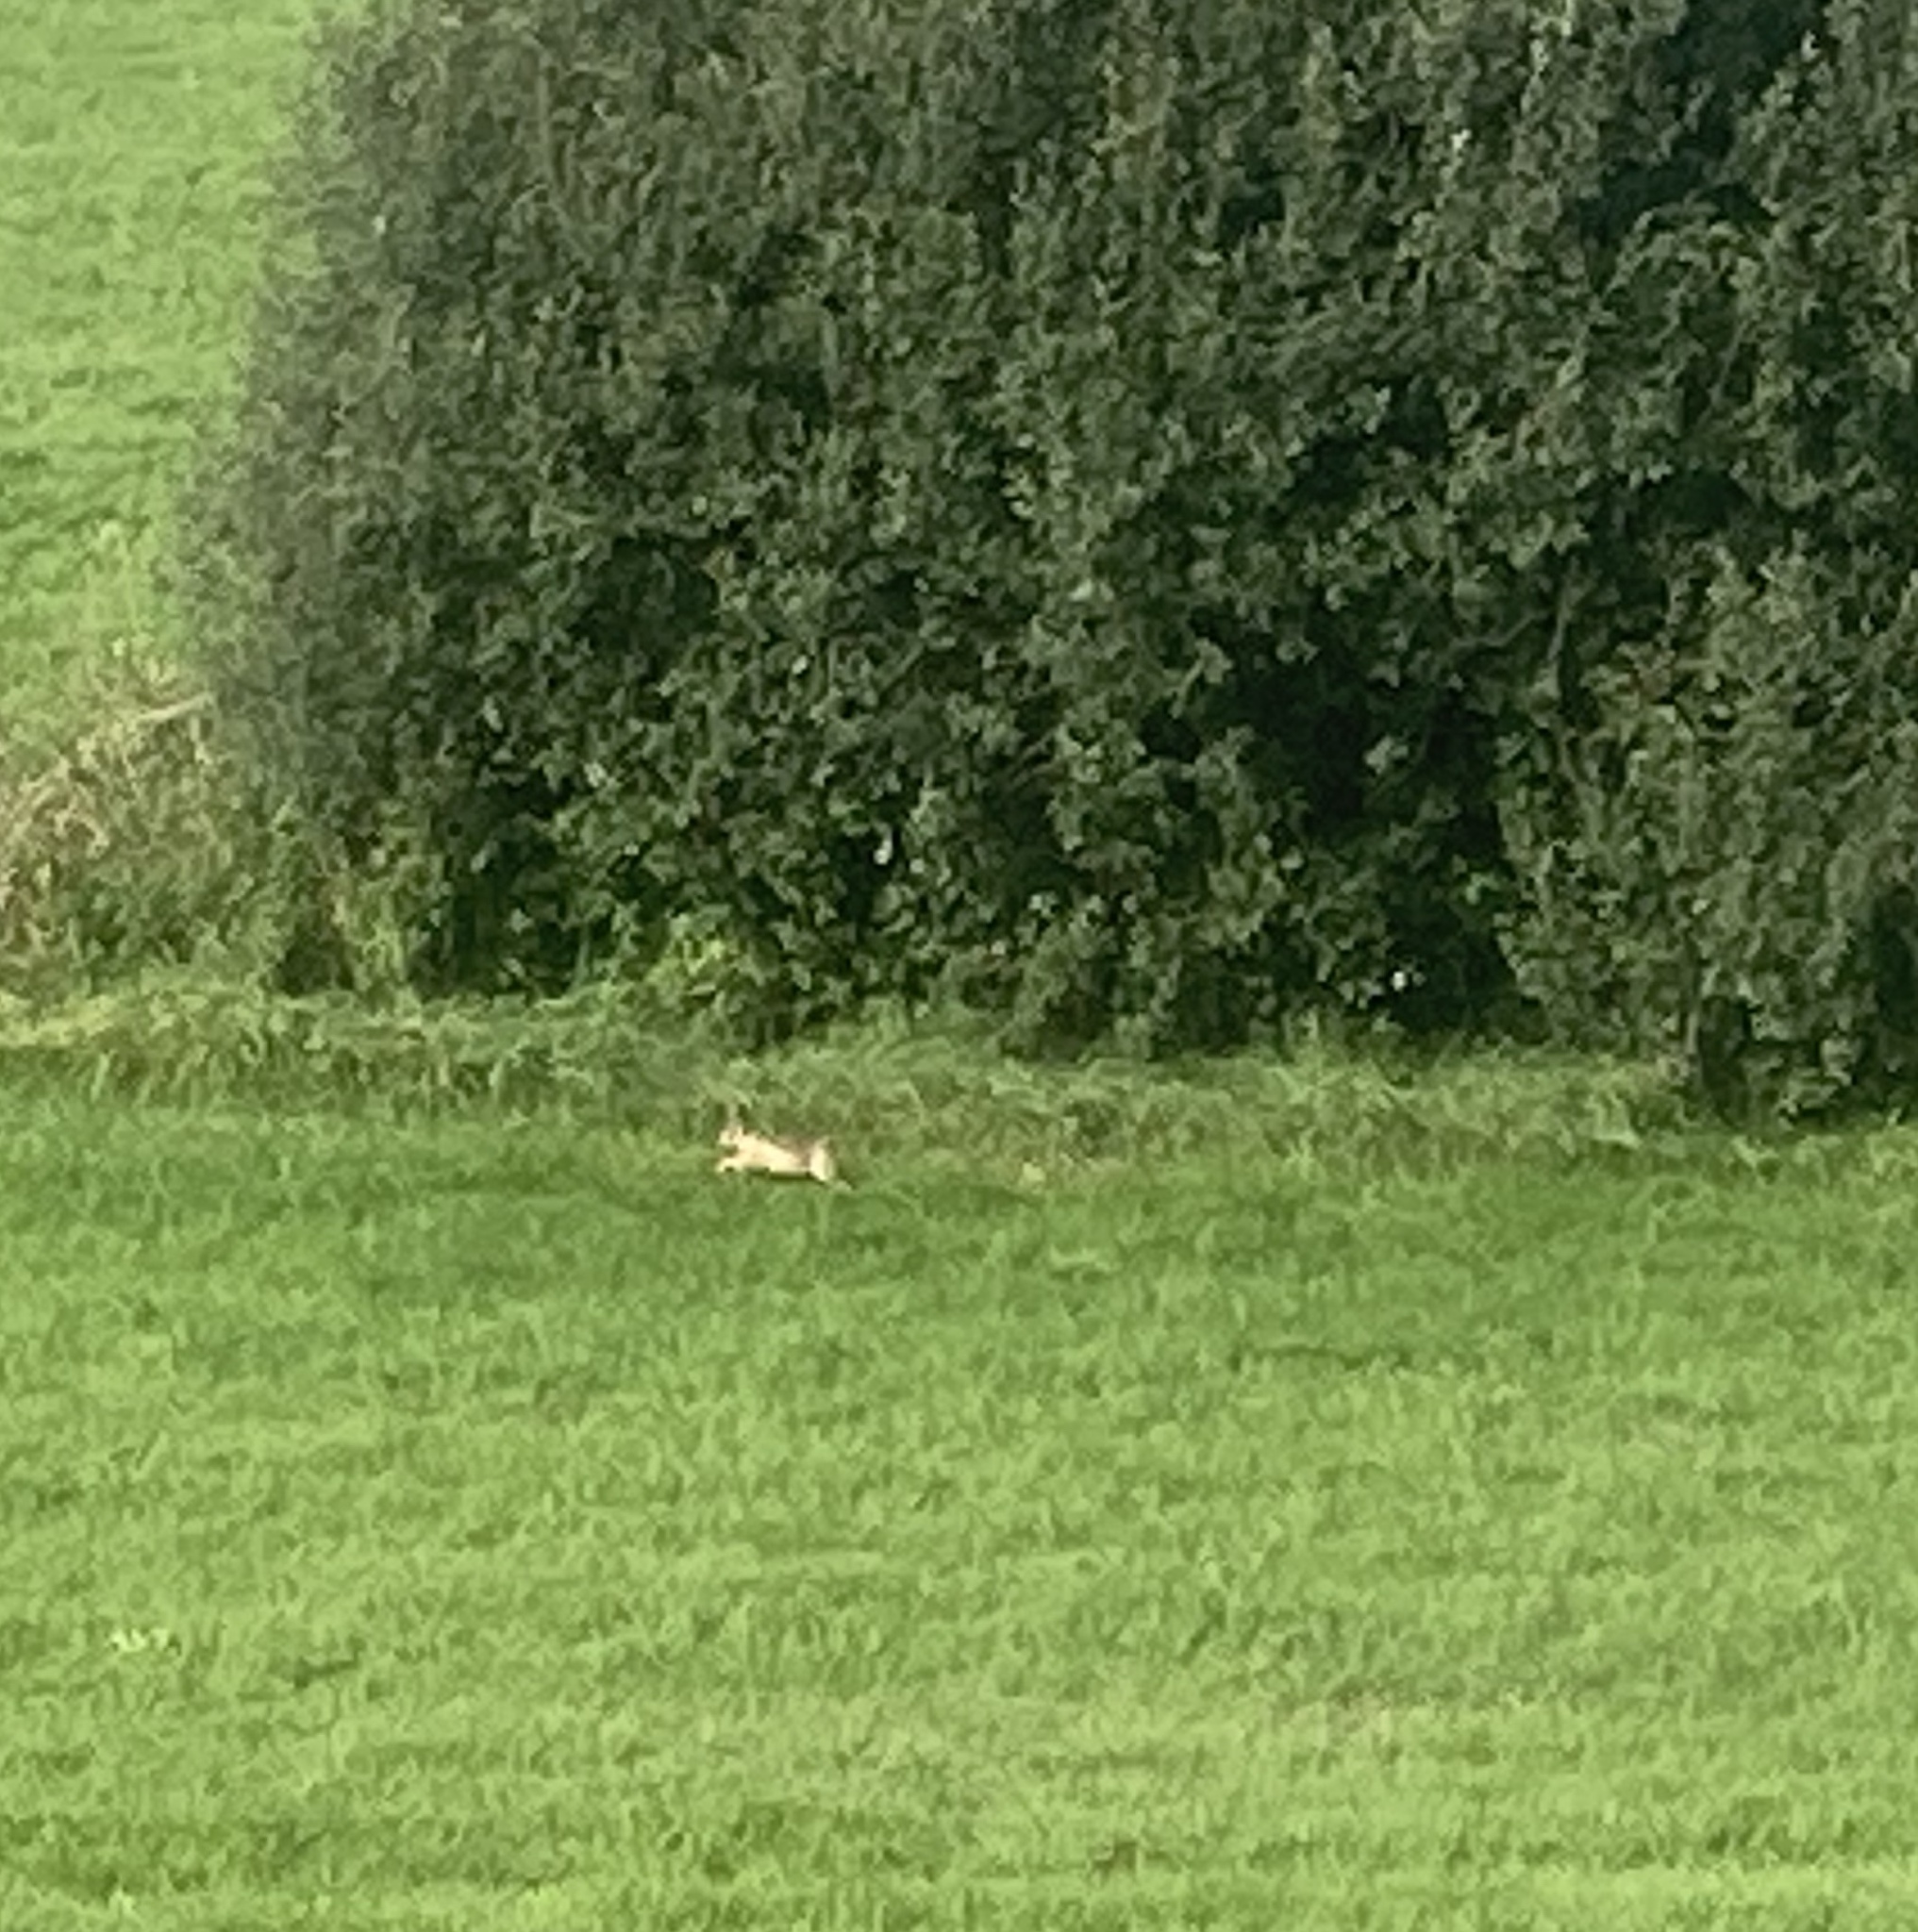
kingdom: Animalia
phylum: Chordata
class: Mammalia
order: Lagomorpha
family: Leporidae
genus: Lepus
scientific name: Lepus europaeus
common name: European hare
